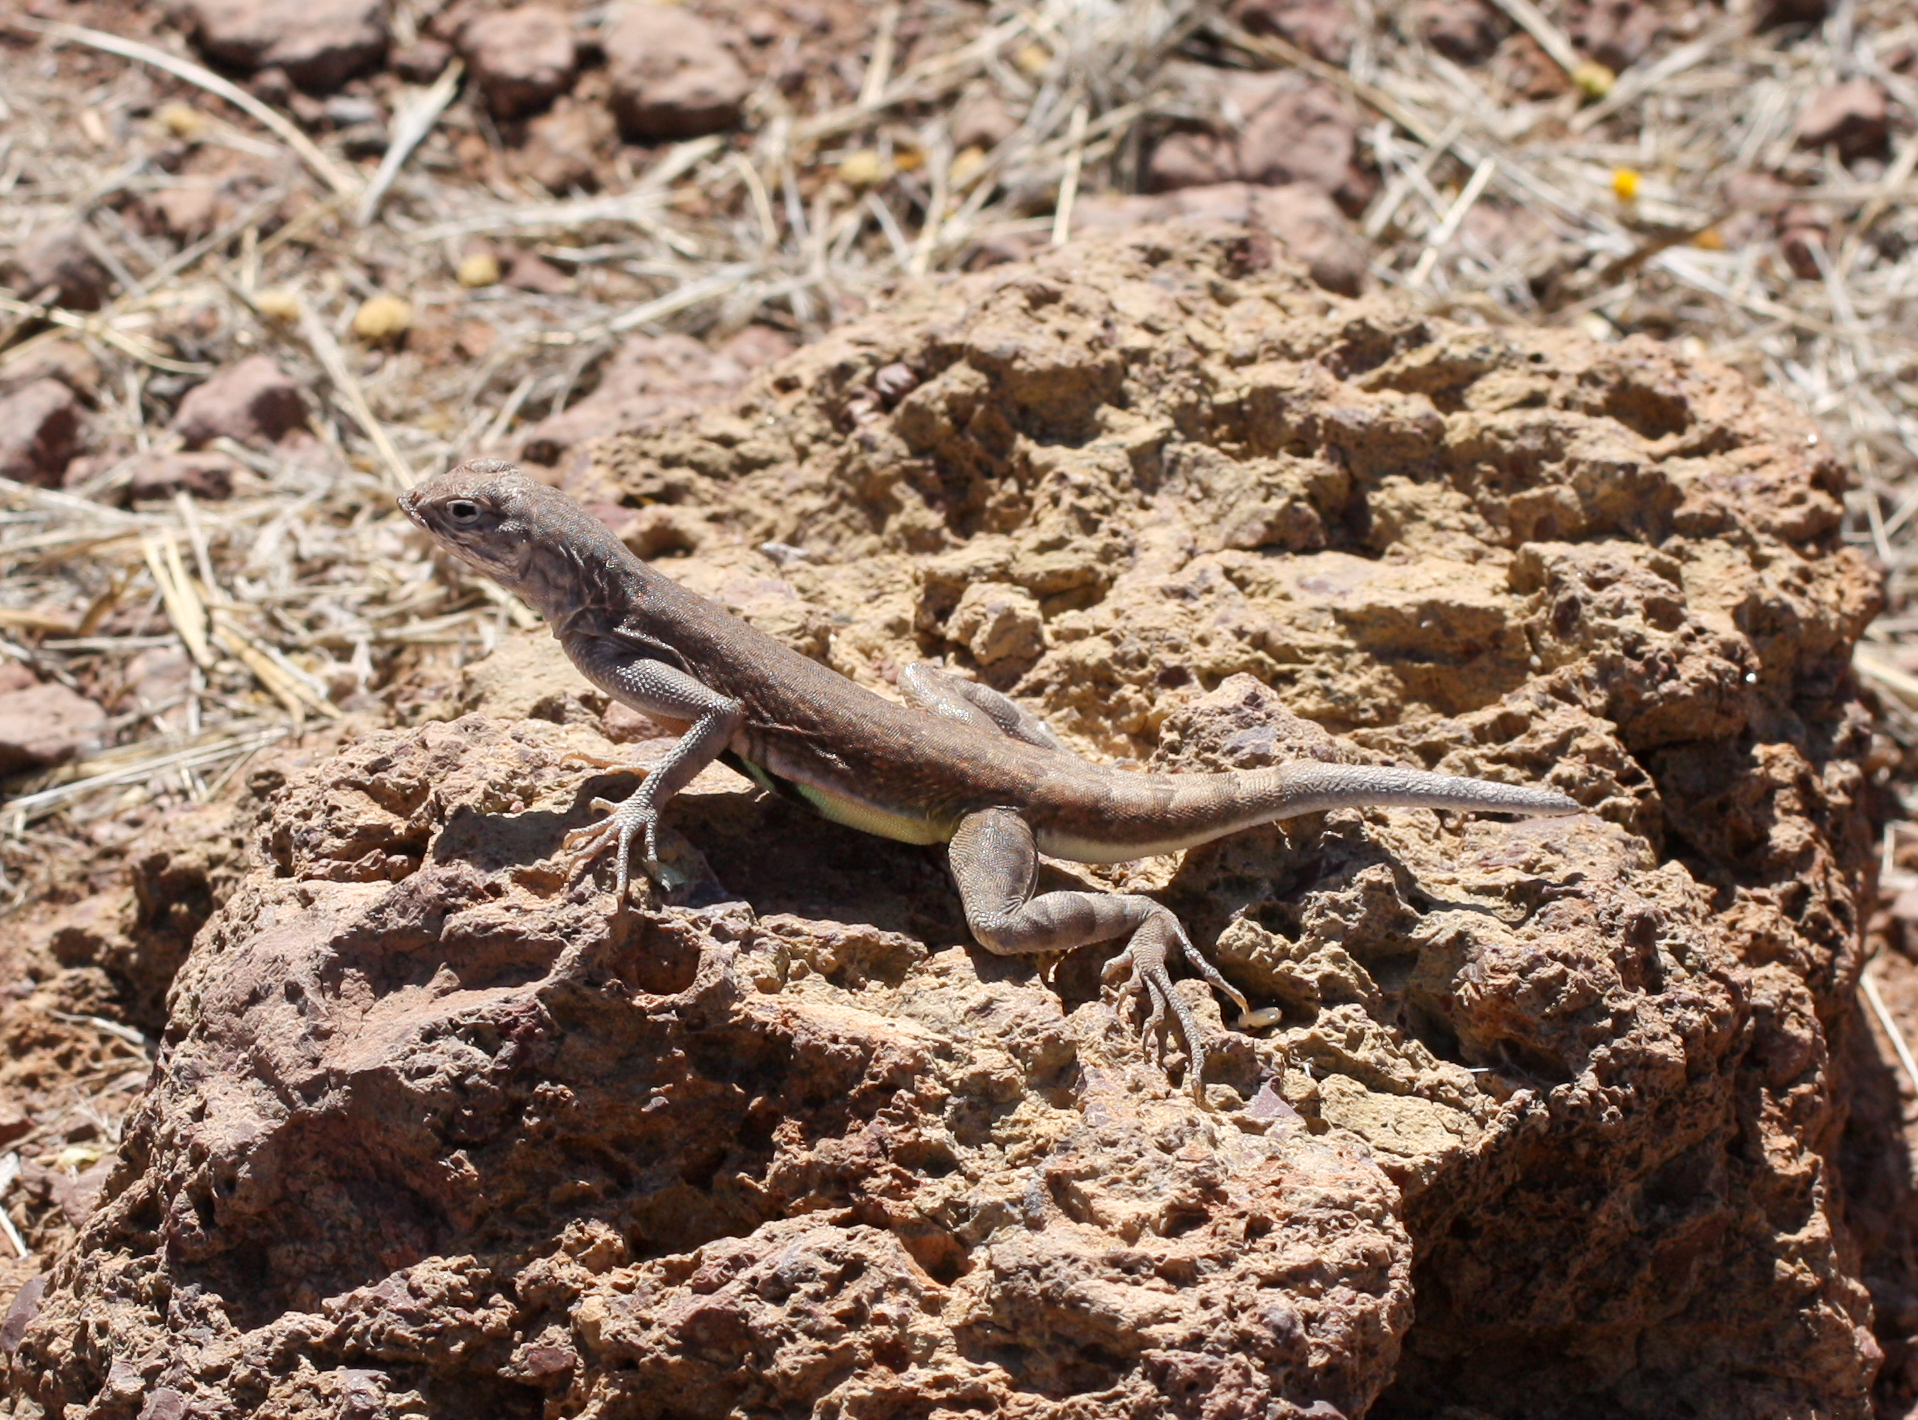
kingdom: Animalia
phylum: Chordata
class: Squamata
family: Phrynosomatidae
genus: Callisaurus
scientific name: Callisaurus draconoides
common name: Zebra-tailed lizard
